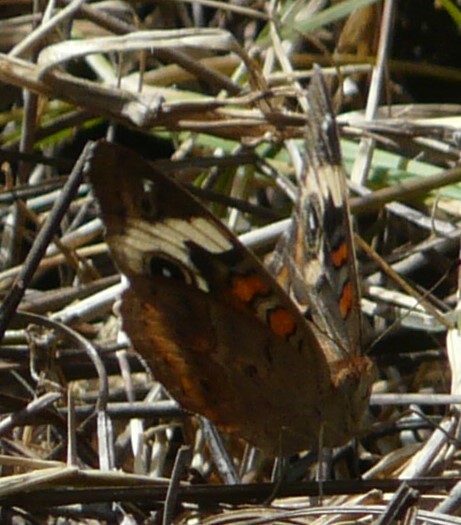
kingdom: Animalia
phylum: Arthropoda
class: Insecta
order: Lepidoptera
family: Nymphalidae
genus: Junonia
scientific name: Junonia coenia
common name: Common buckeye
